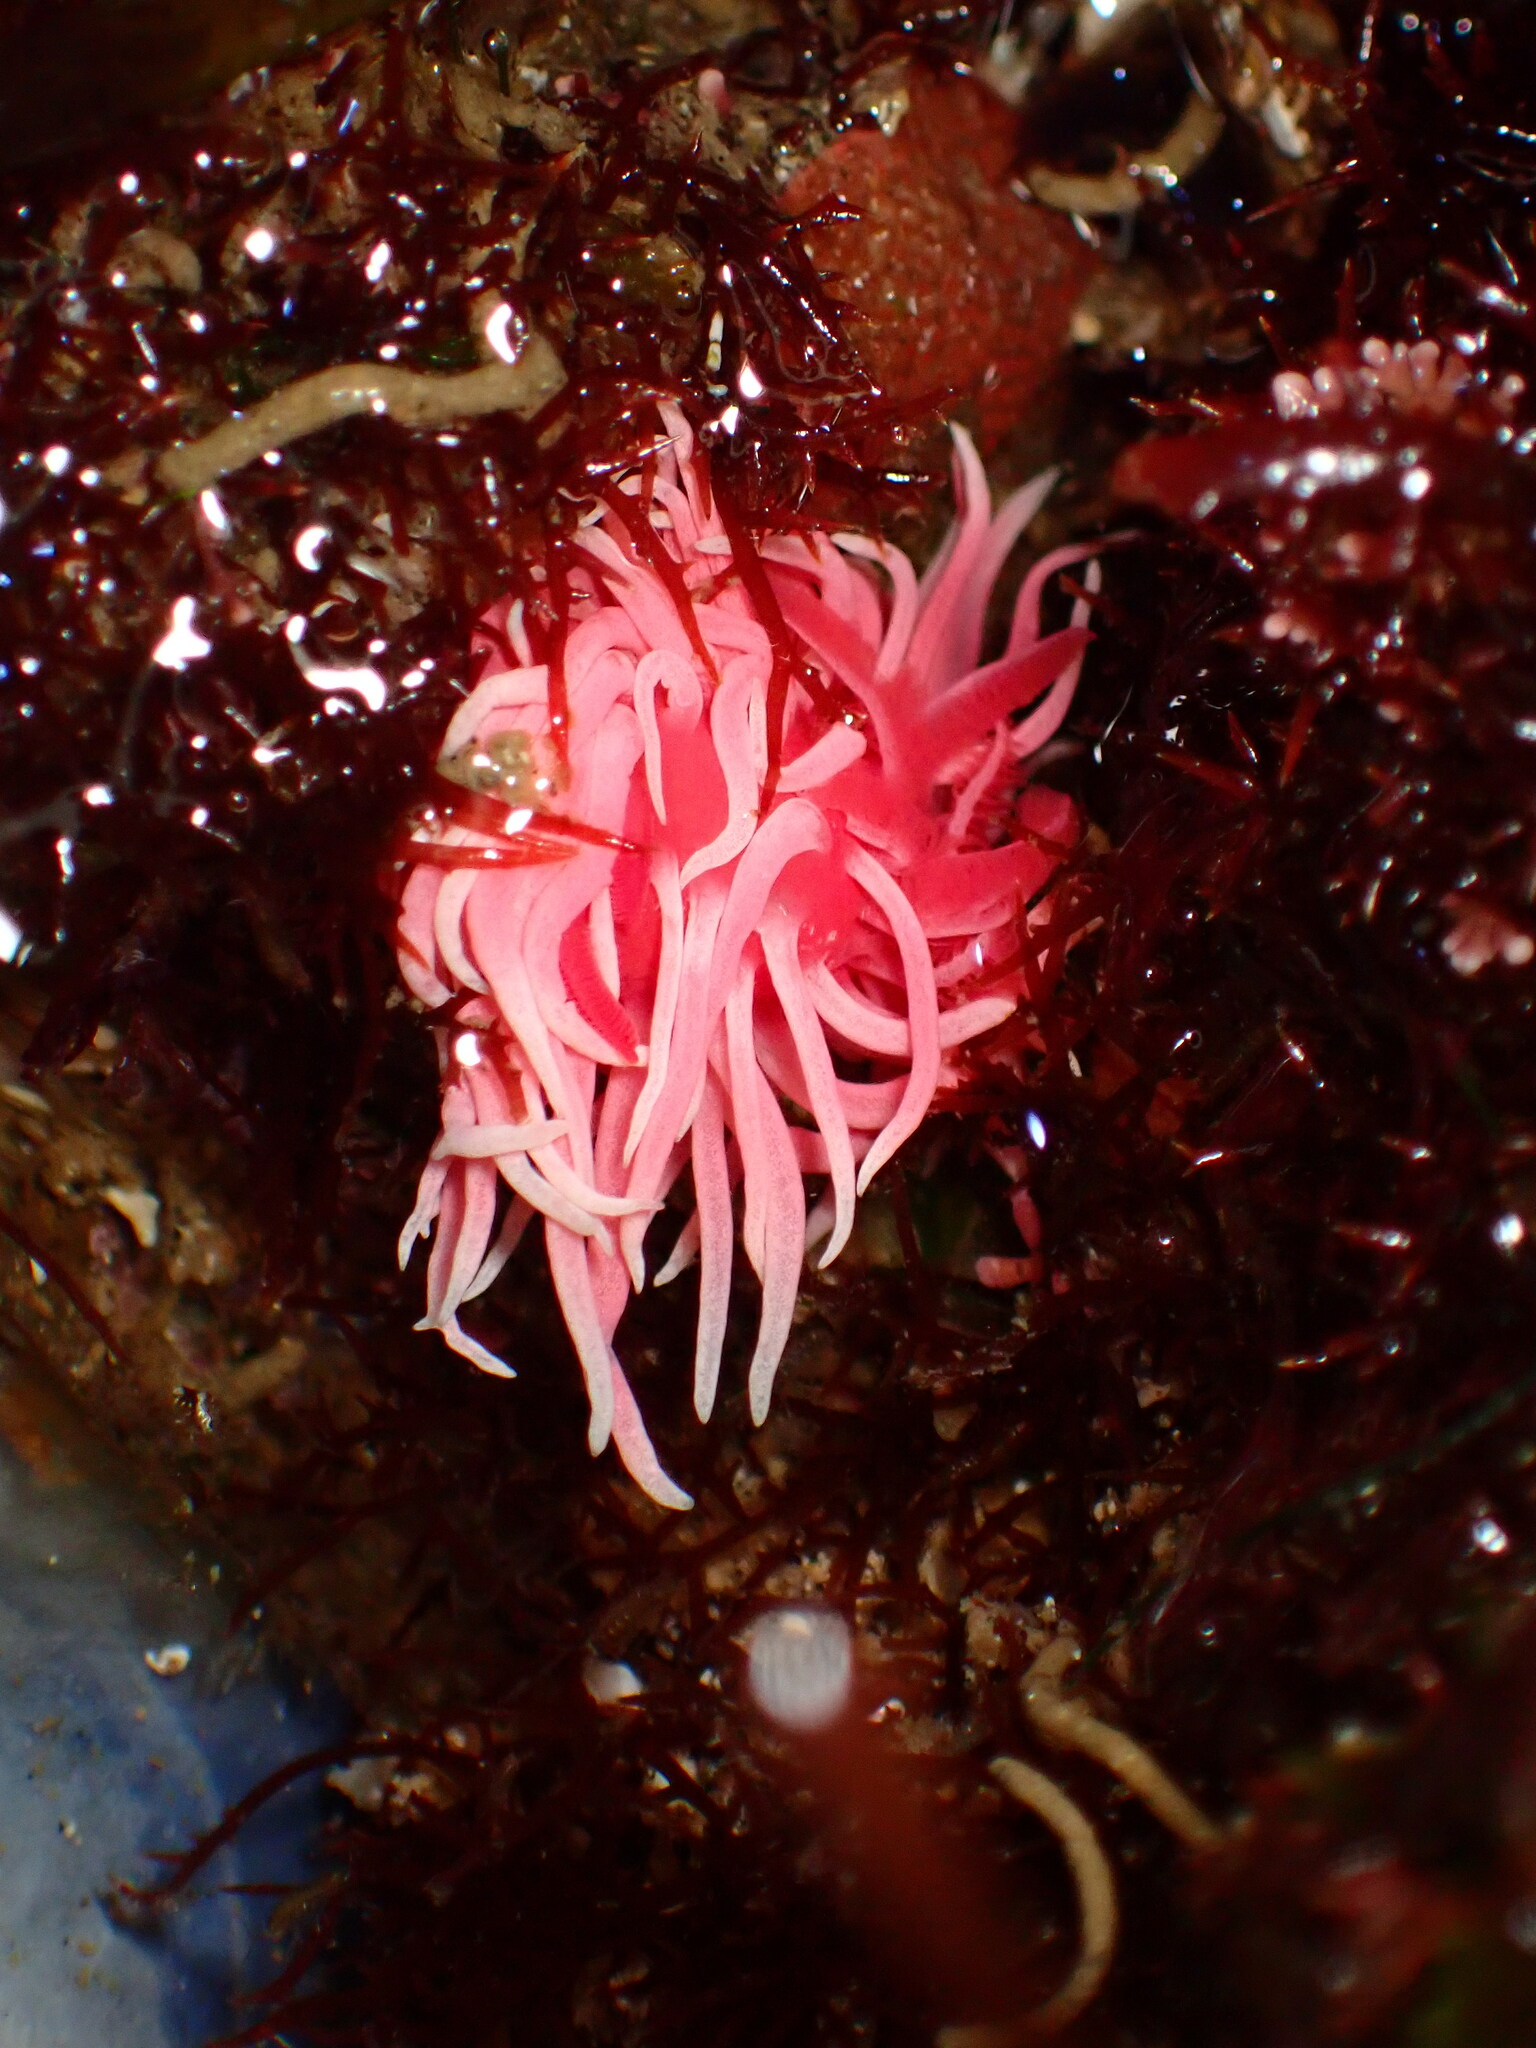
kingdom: Animalia
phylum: Mollusca
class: Gastropoda
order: Nudibranchia
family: Goniodorididae
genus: Okenia
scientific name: Okenia
